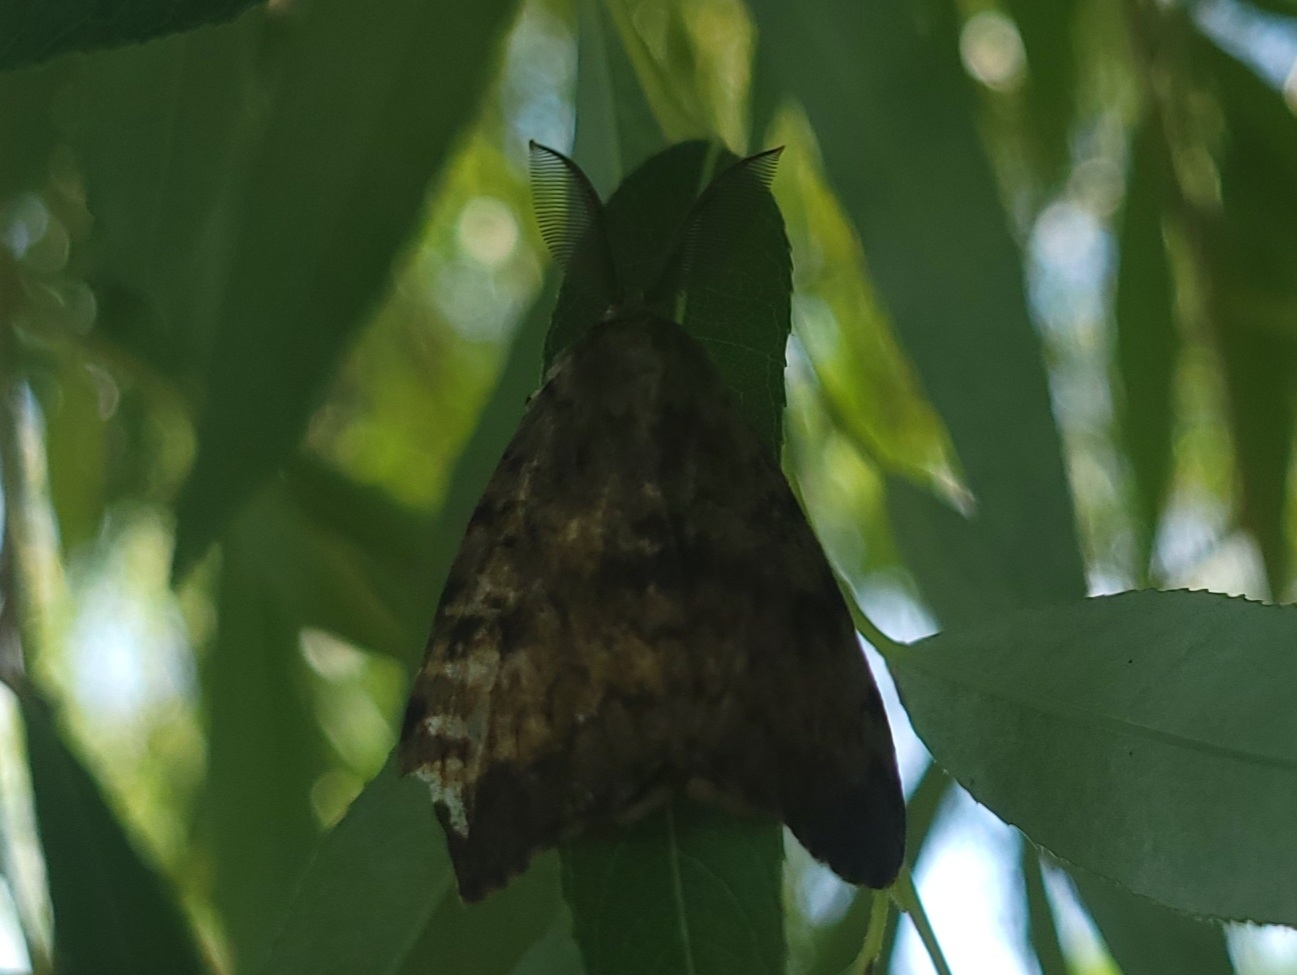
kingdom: Animalia
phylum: Arthropoda
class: Insecta
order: Lepidoptera
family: Erebidae
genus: Lymantria
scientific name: Lymantria dispar
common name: Gypsy moth
